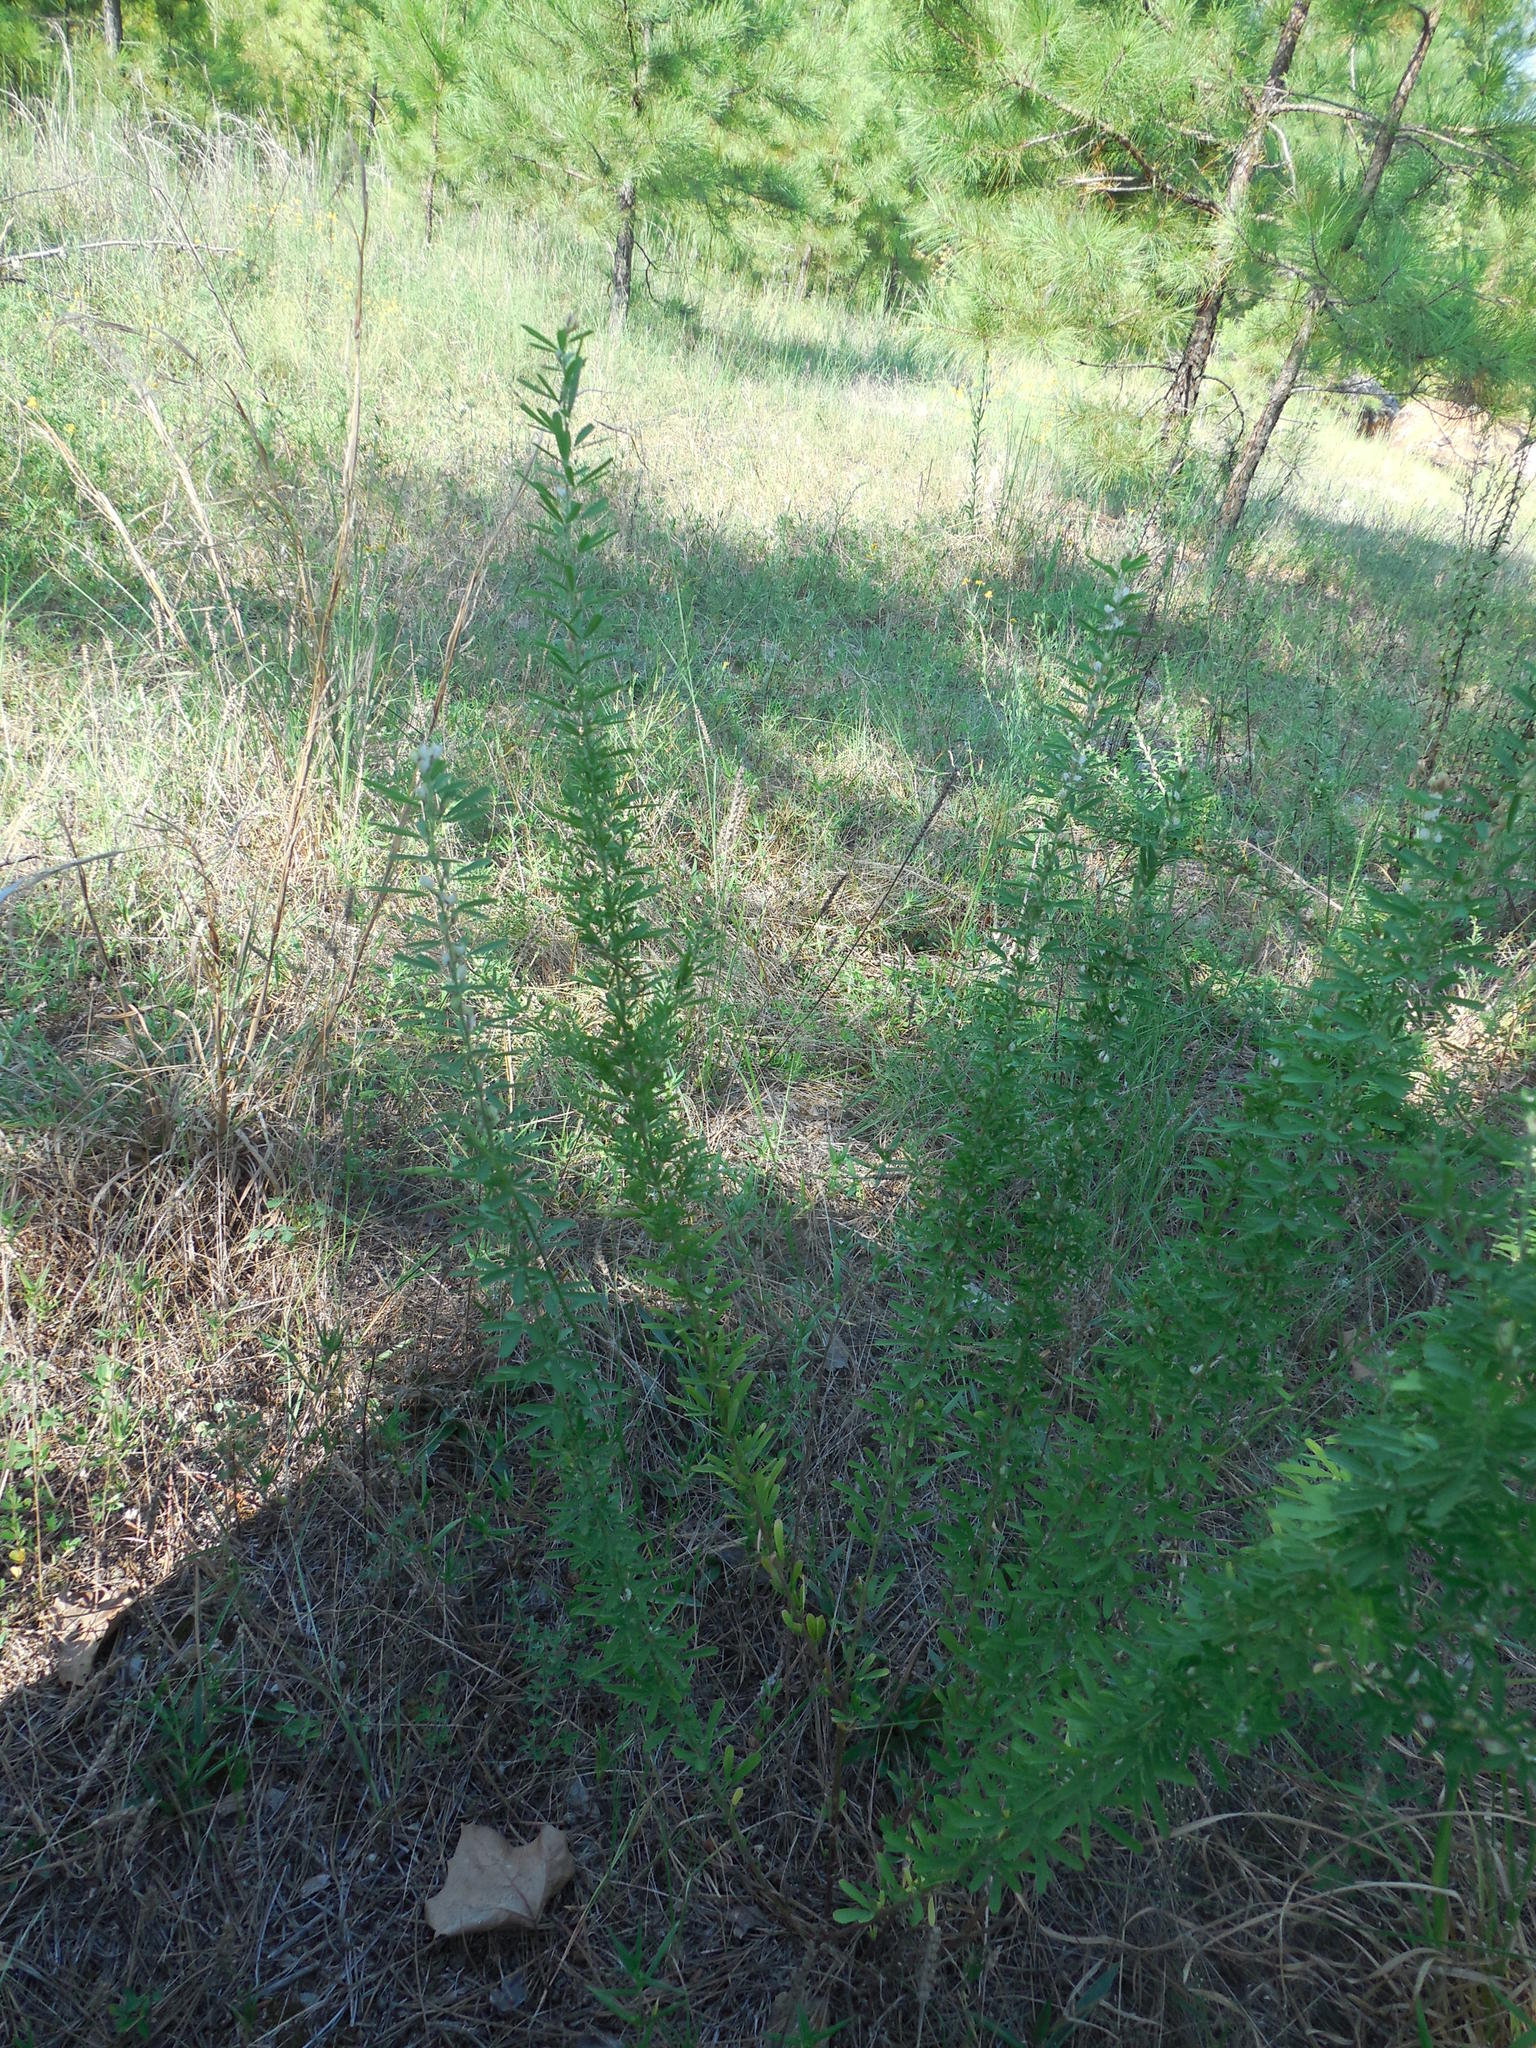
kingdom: Plantae
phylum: Tracheophyta
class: Magnoliopsida
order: Fabales
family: Fabaceae
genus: Lespedeza
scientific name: Lespedeza cuneata
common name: Chinese bush-clover
